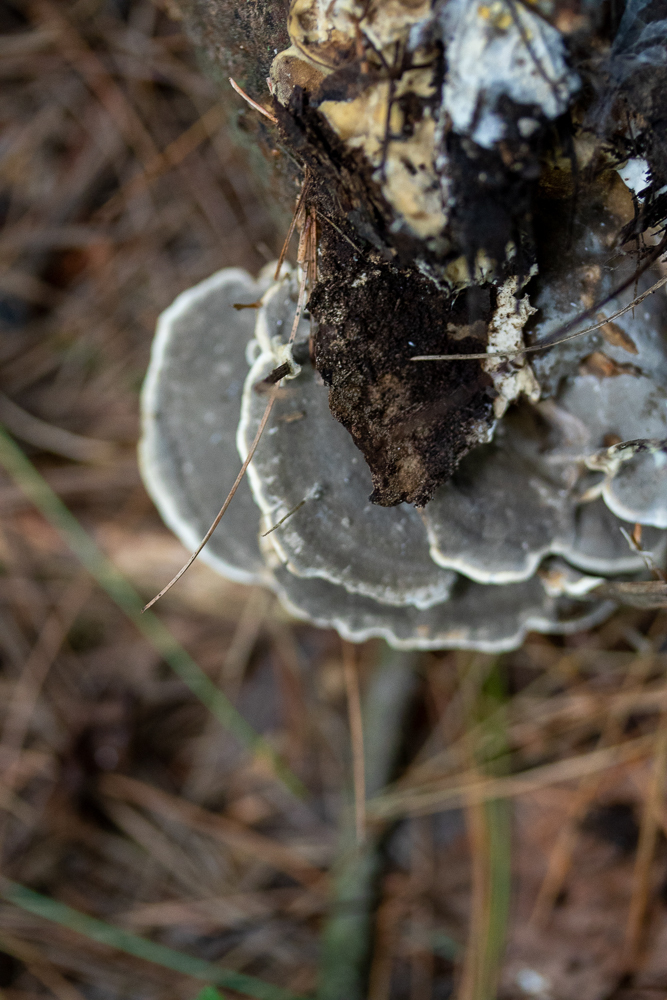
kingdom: Fungi
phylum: Basidiomycota
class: Agaricomycetes
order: Polyporales
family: Phanerochaetaceae
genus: Bjerkandera
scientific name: Bjerkandera adusta
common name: Smoky bracket
